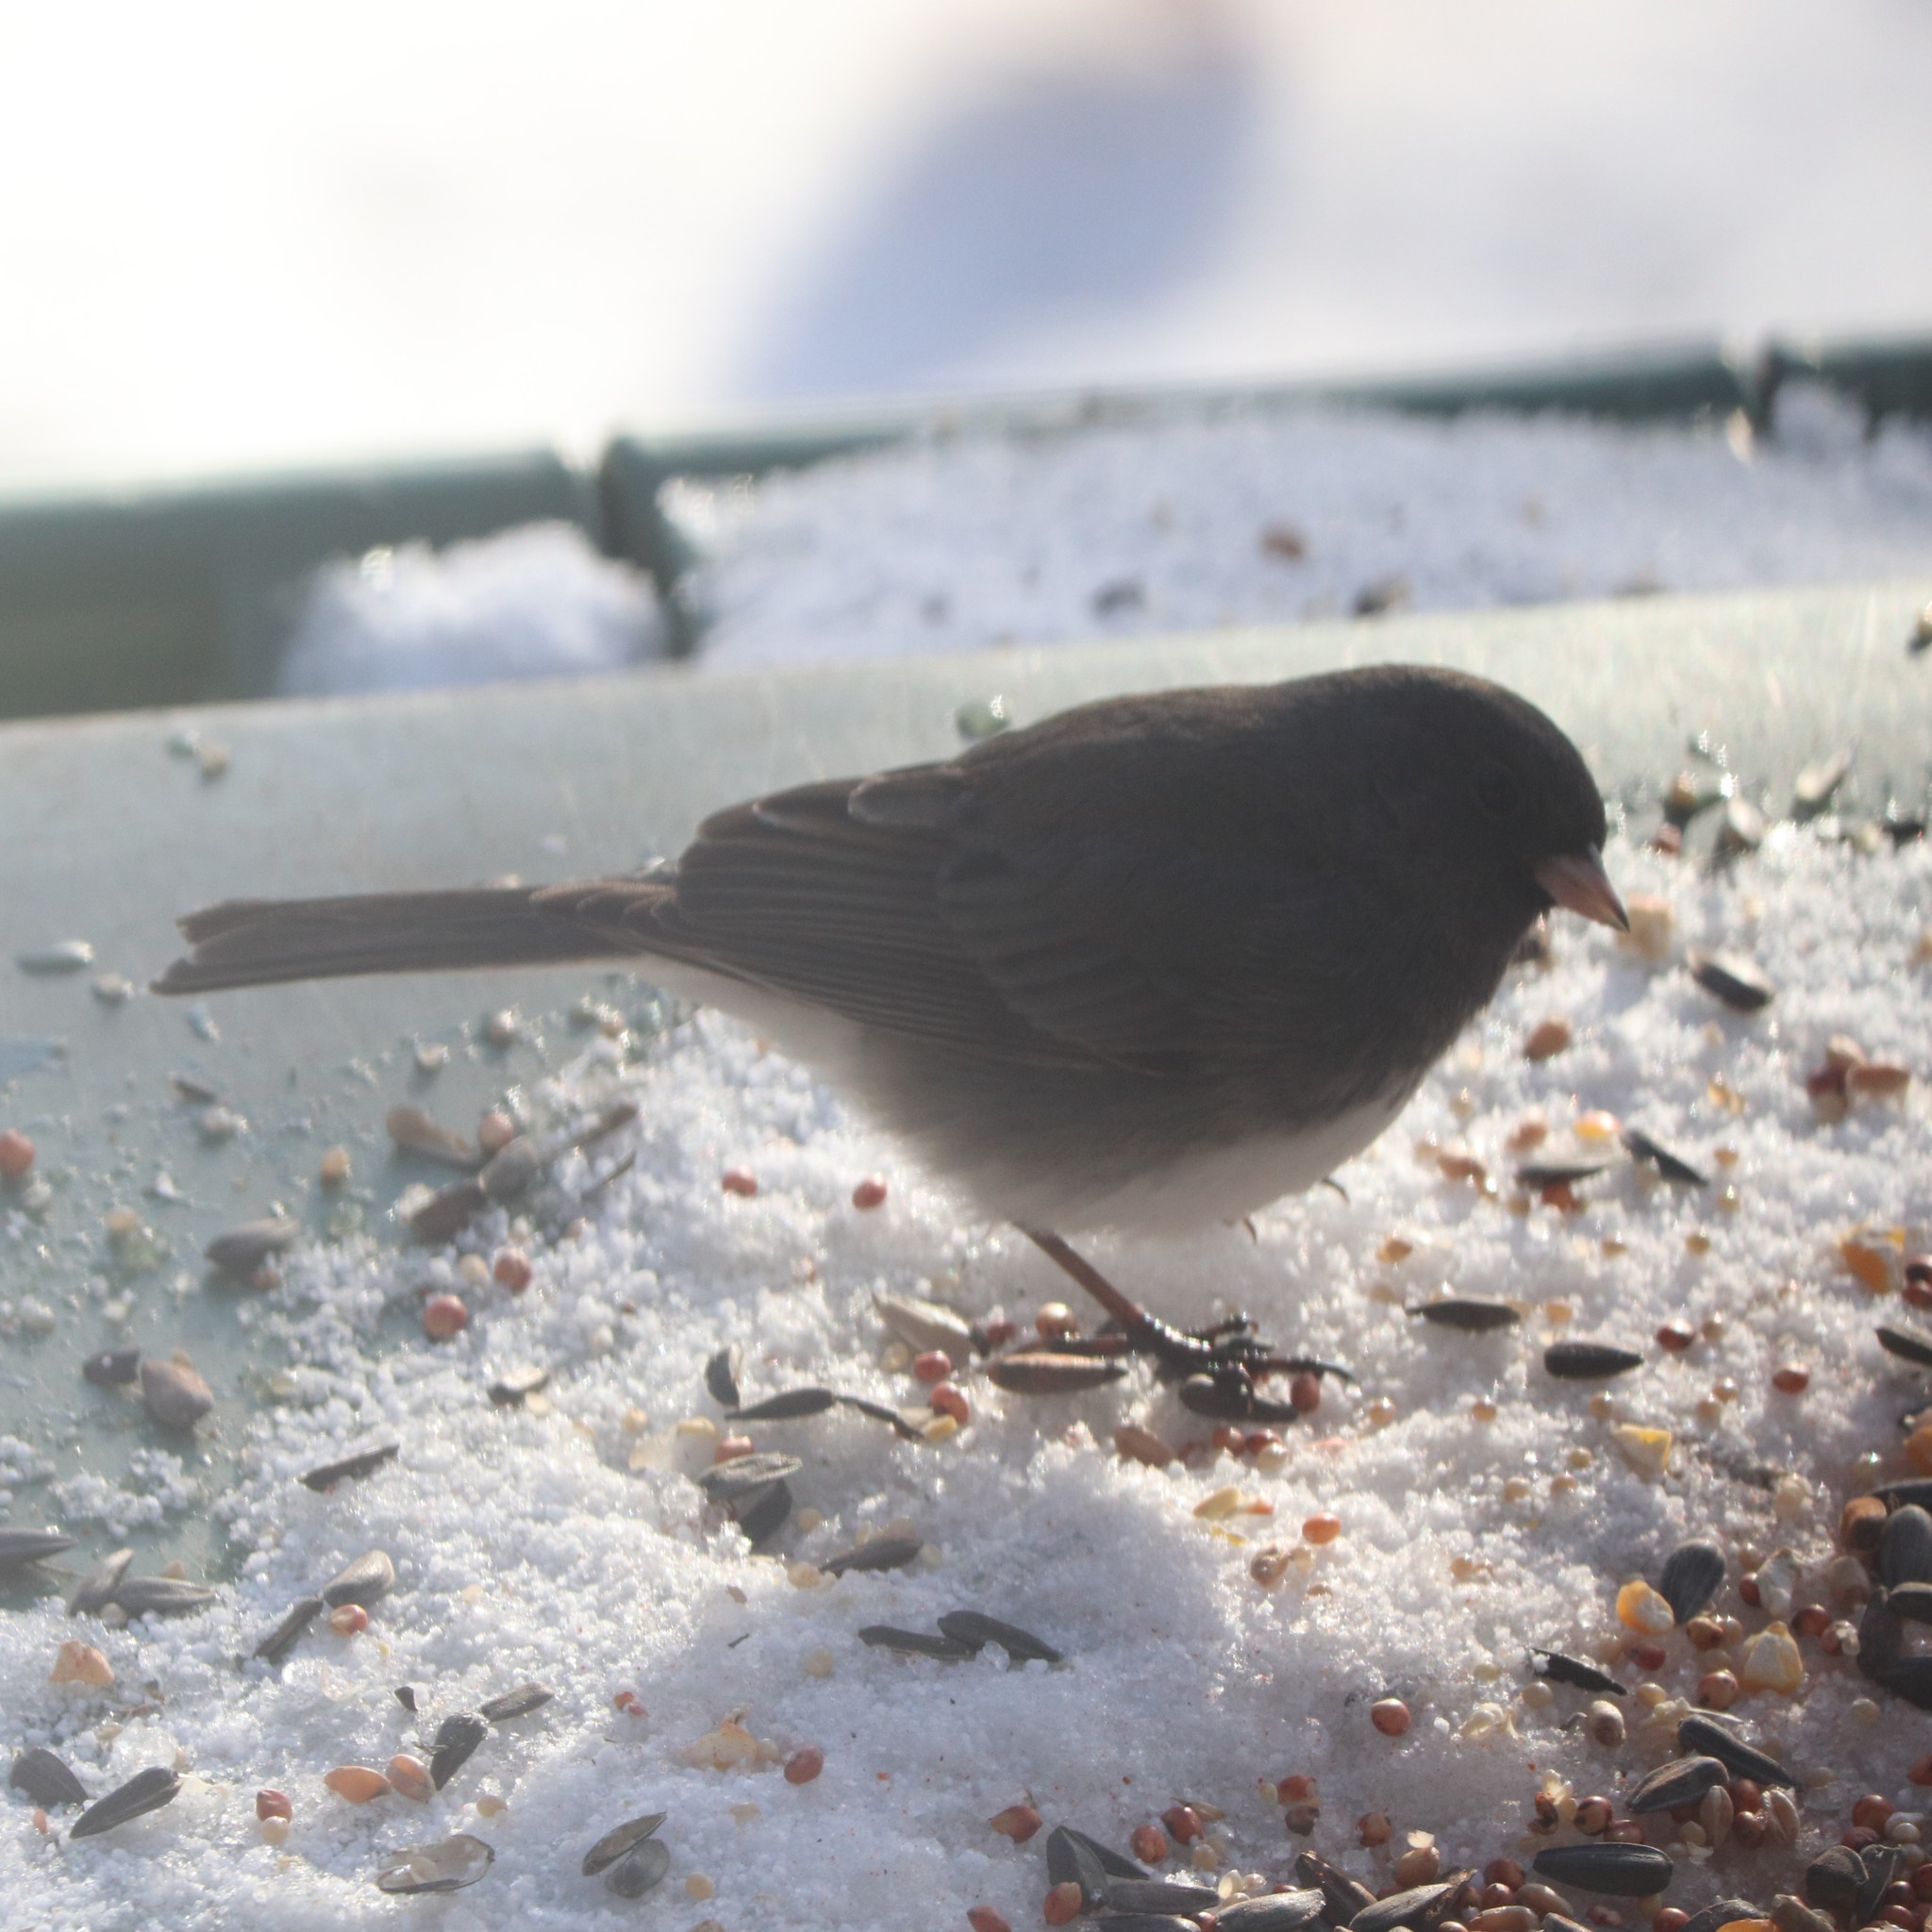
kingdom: Animalia
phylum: Chordata
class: Aves
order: Passeriformes
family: Passerellidae
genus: Junco
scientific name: Junco hyemalis
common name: Dark-eyed junco
